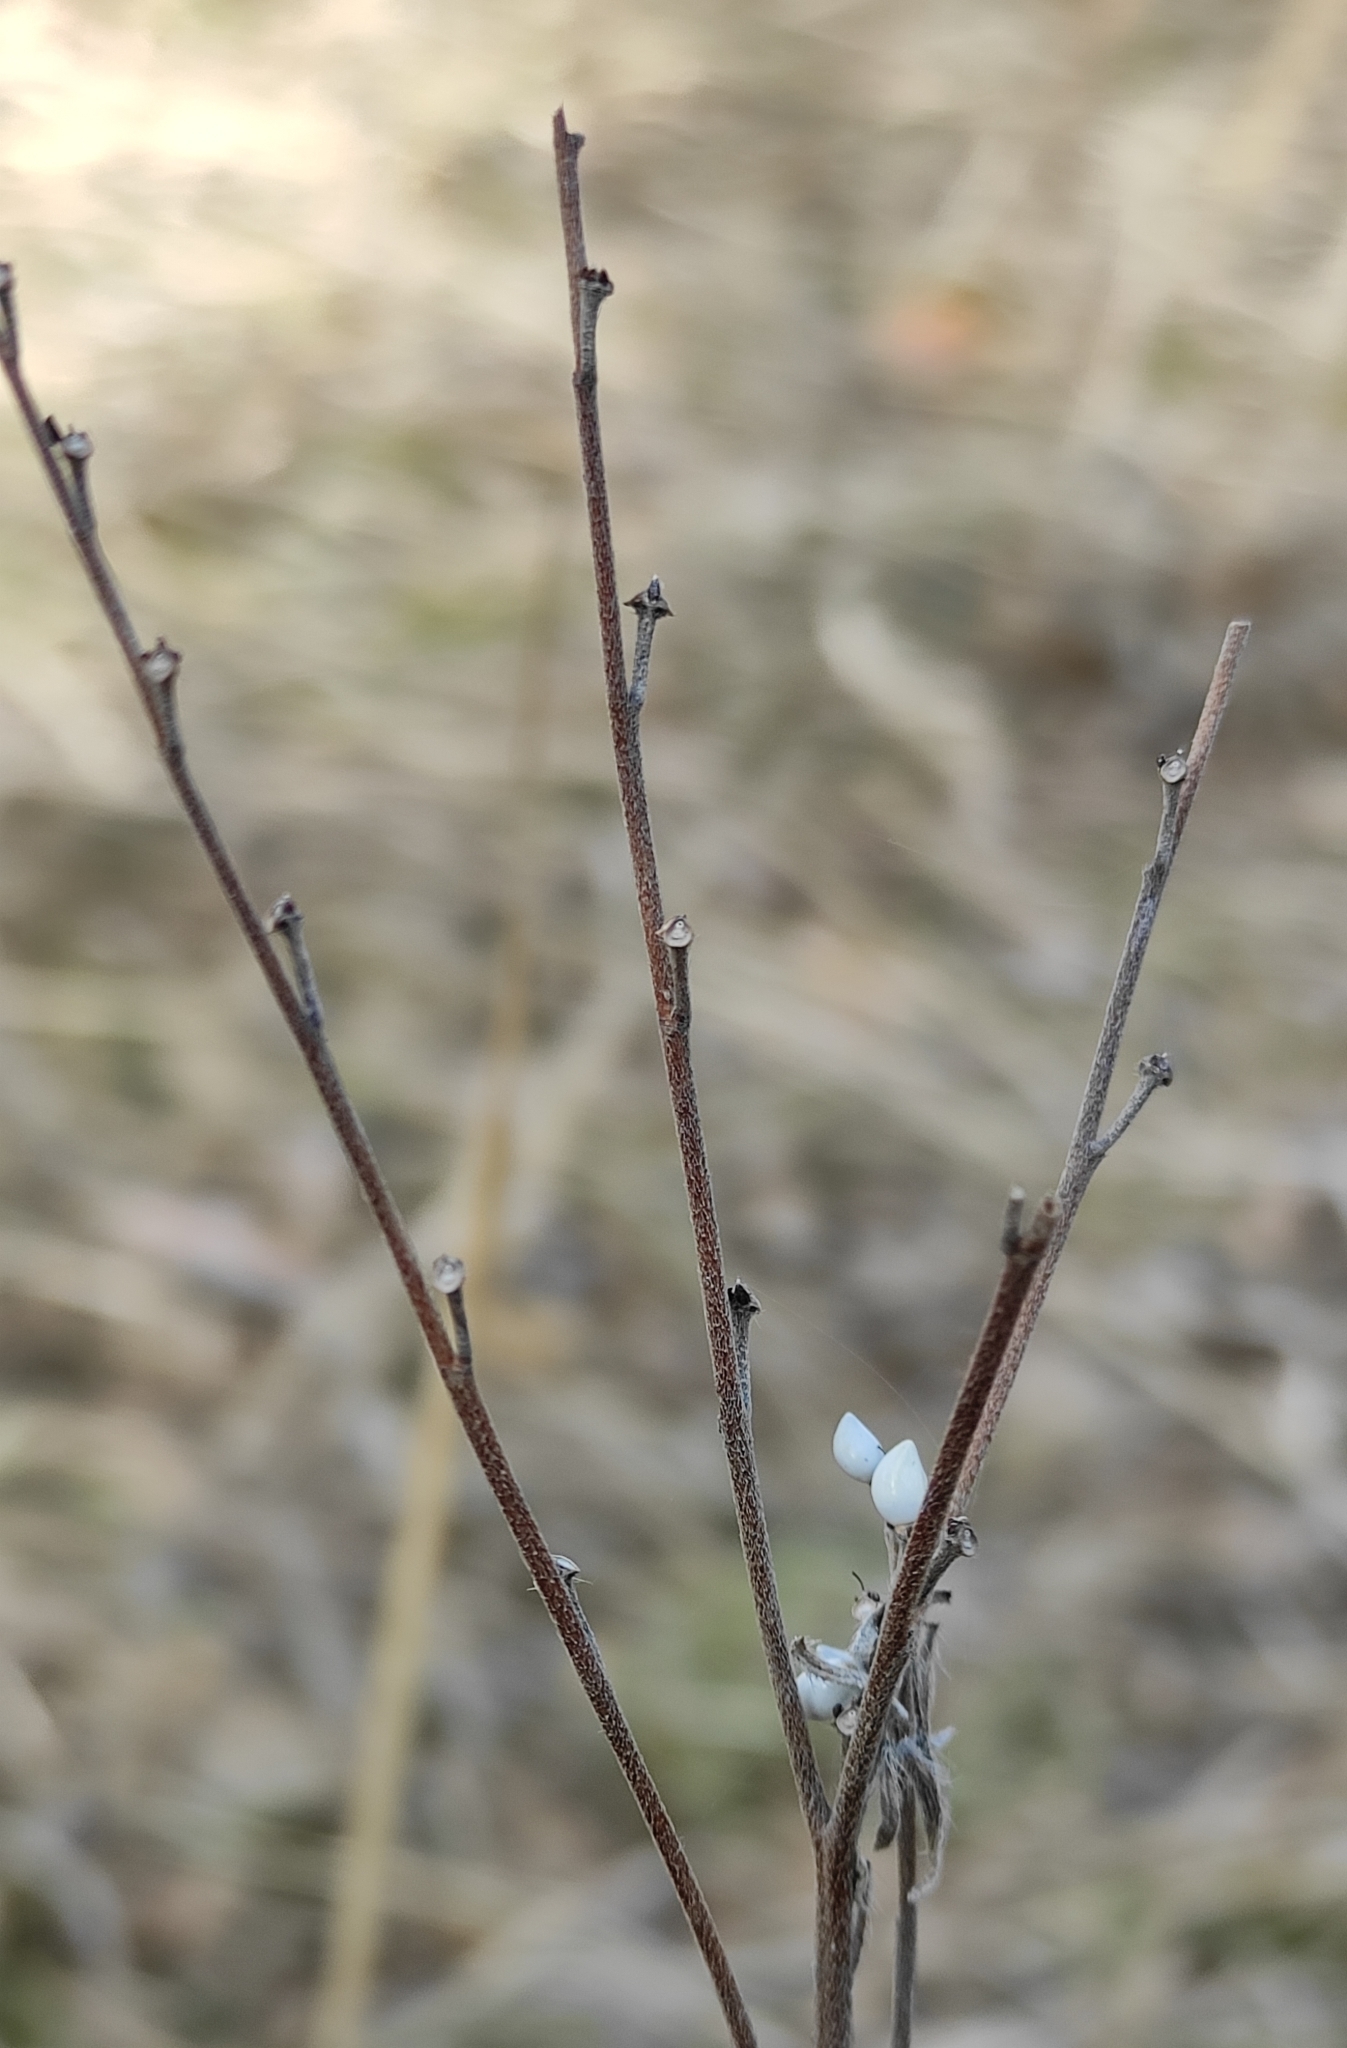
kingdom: Plantae
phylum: Tracheophyta
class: Magnoliopsida
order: Boraginales
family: Boraginaceae
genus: Lithospermum
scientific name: Lithospermum officinale
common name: Common gromwell
